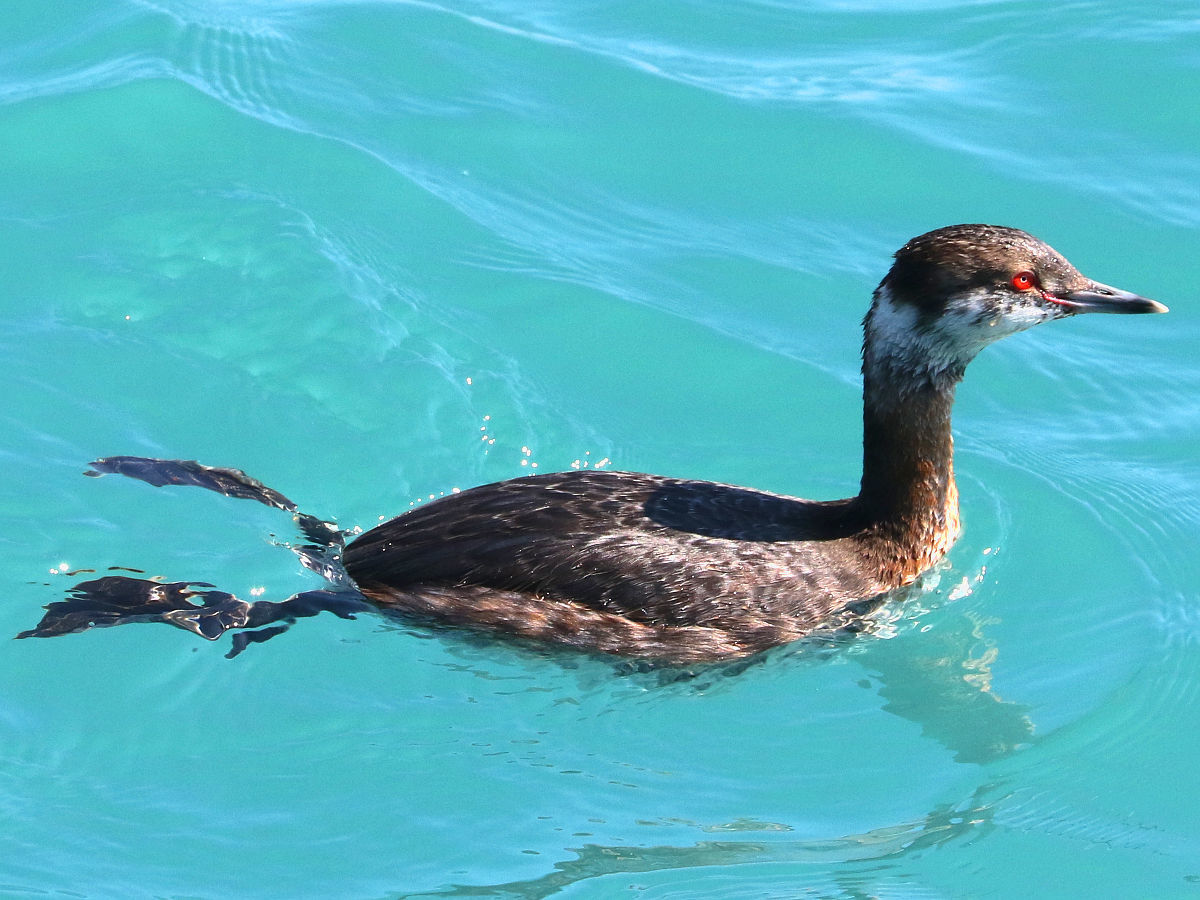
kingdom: Animalia
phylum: Chordata
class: Aves
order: Podicipediformes
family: Podicipedidae
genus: Podiceps
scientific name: Podiceps auritus
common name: Horned grebe
